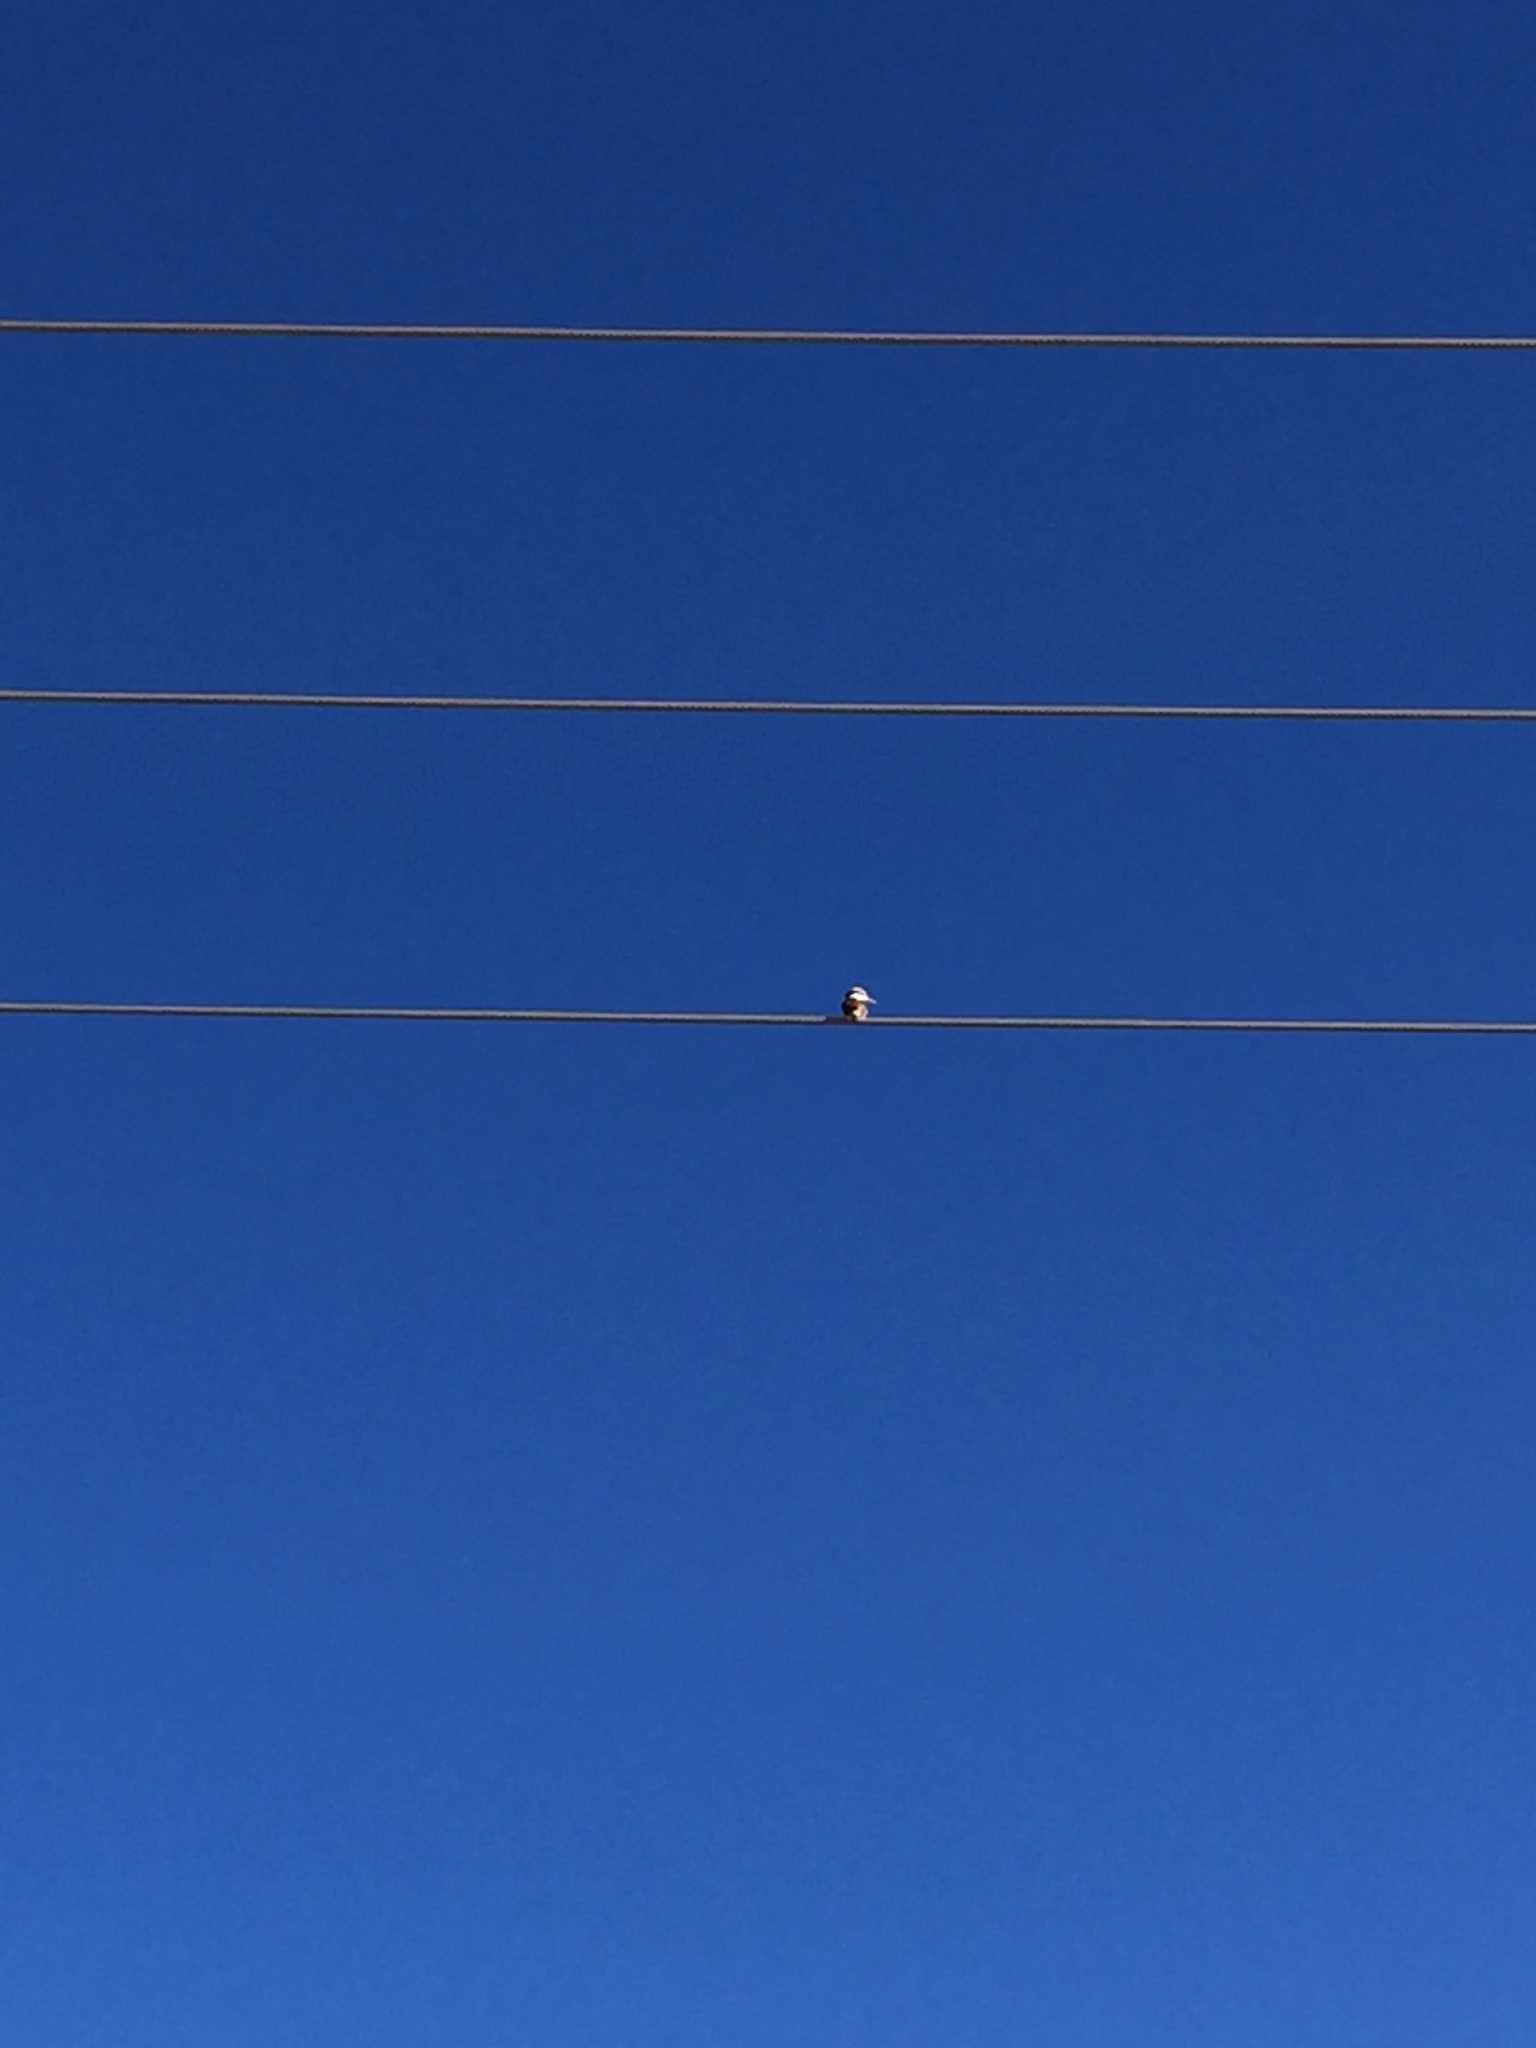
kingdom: Animalia
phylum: Chordata
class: Aves
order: Coraciiformes
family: Alcedinidae
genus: Todiramphus
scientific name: Todiramphus pyrrhopygius
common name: Red-backed kingfisher
